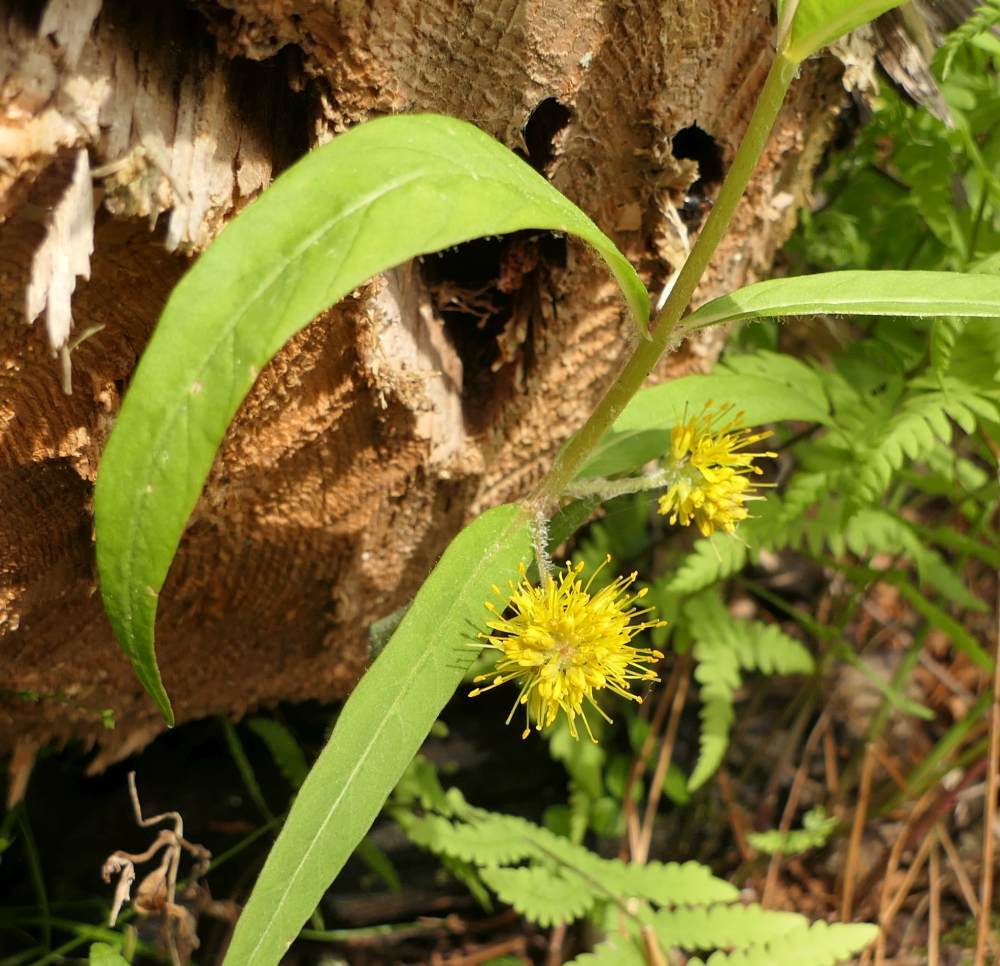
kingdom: Plantae
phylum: Tracheophyta
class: Magnoliopsida
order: Ericales
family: Primulaceae
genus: Lysimachia
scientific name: Lysimachia thyrsiflora
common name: Tufted loosestrife
